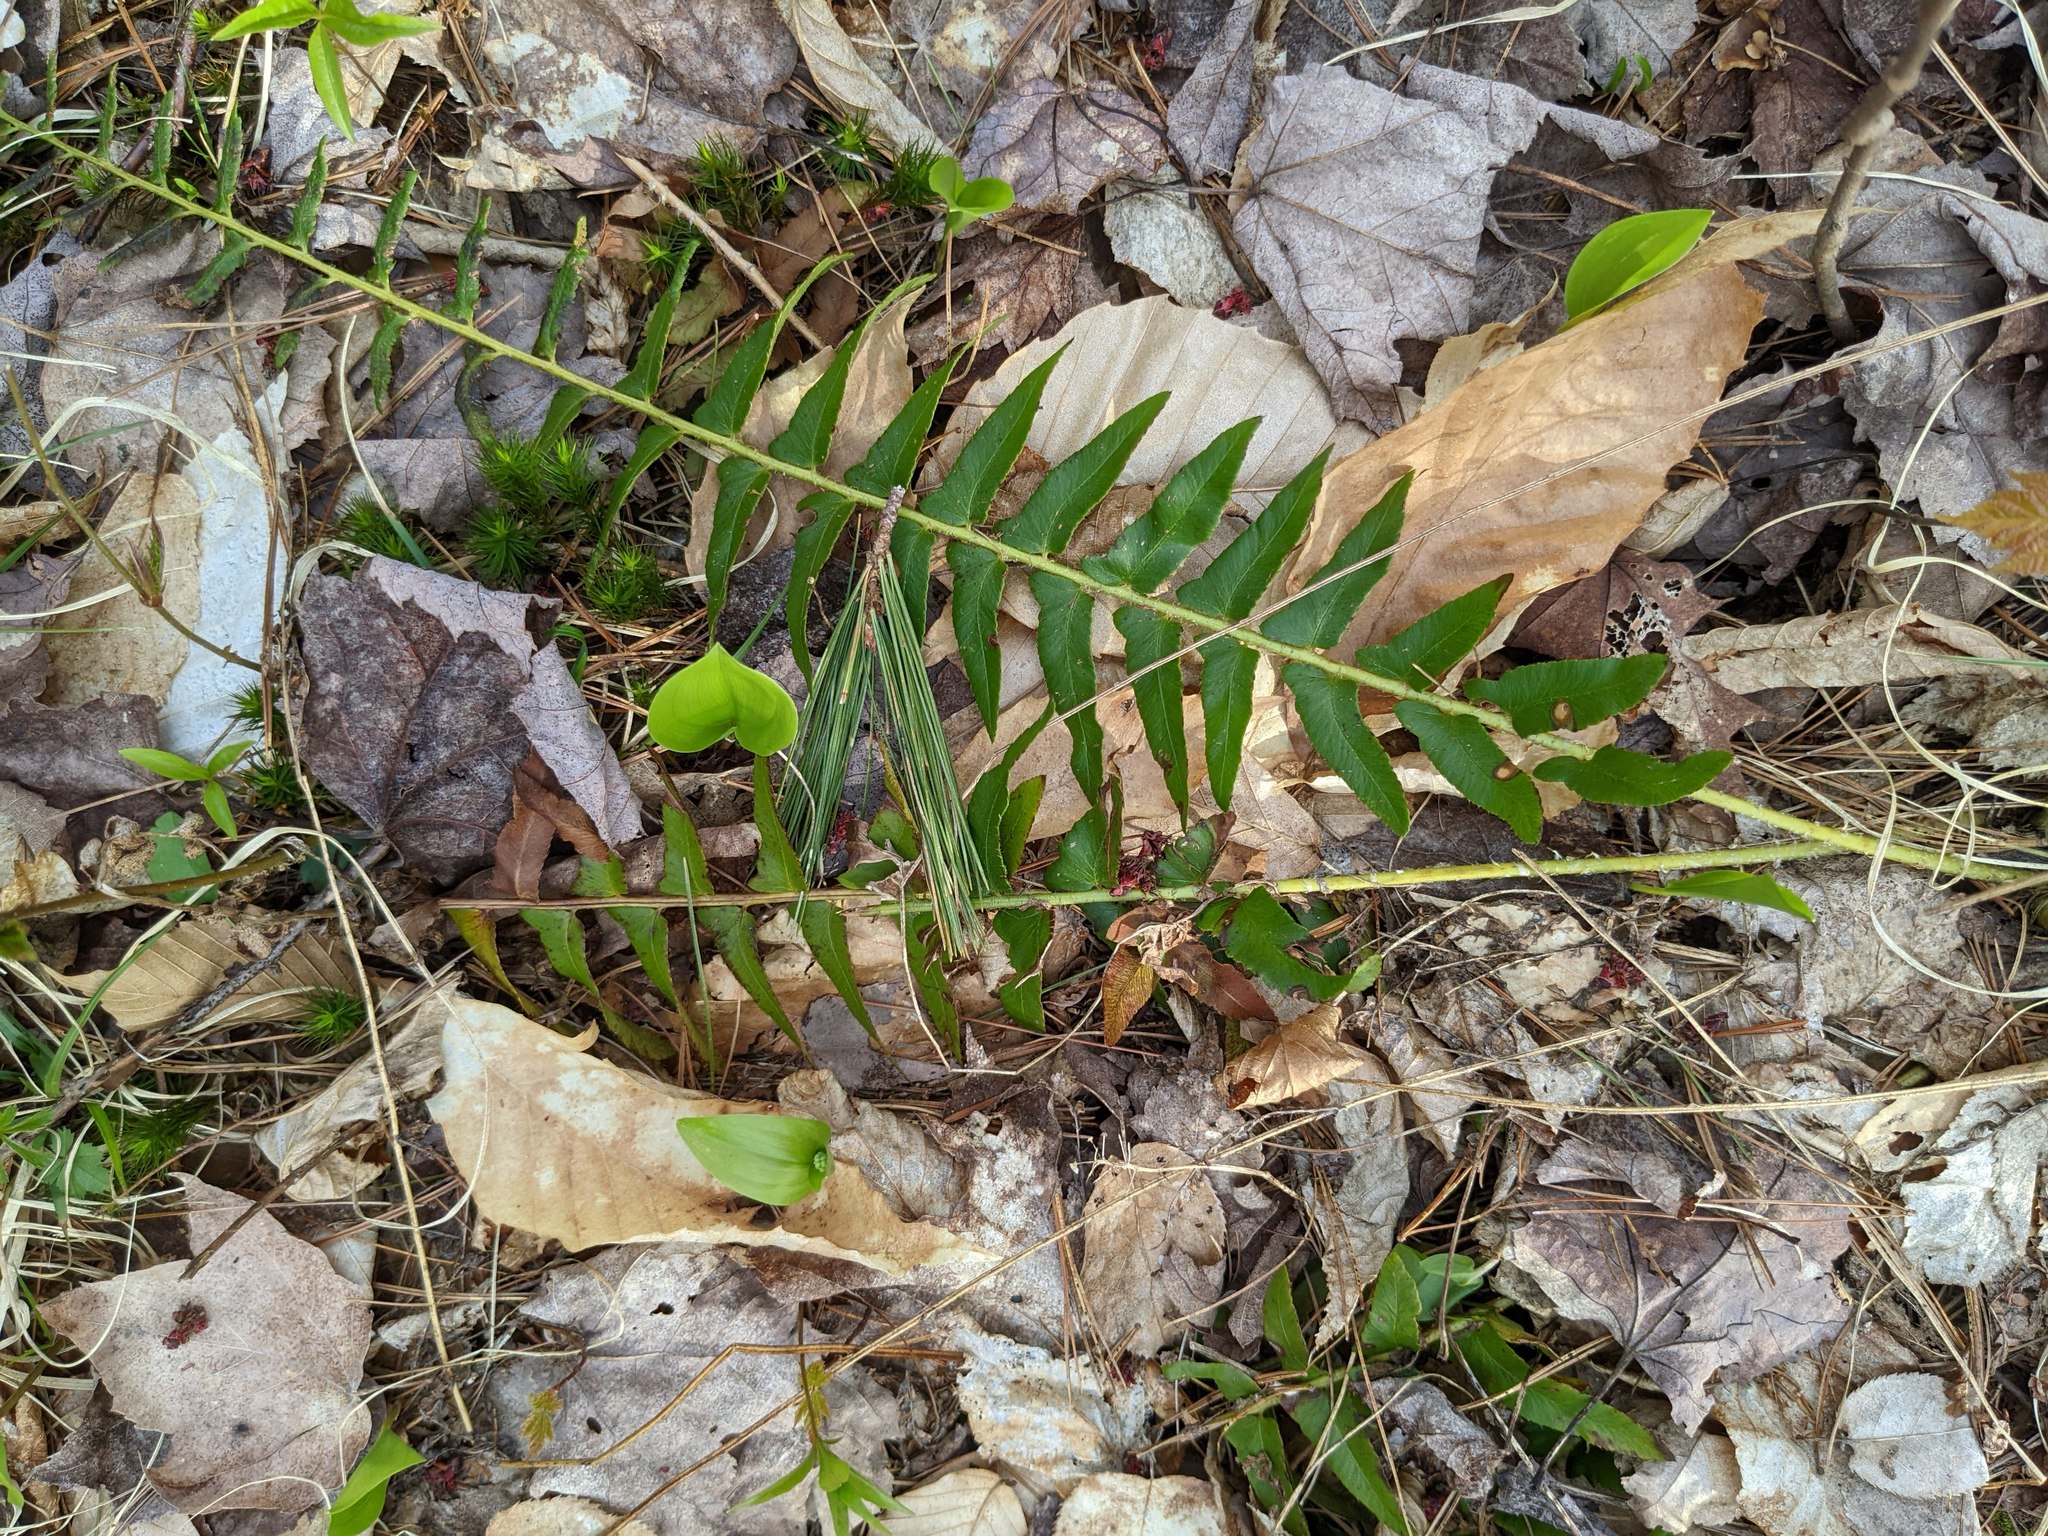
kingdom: Plantae
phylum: Tracheophyta
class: Polypodiopsida
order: Polypodiales
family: Dryopteridaceae
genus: Polystichum
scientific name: Polystichum acrostichoides
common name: Christmas fern
